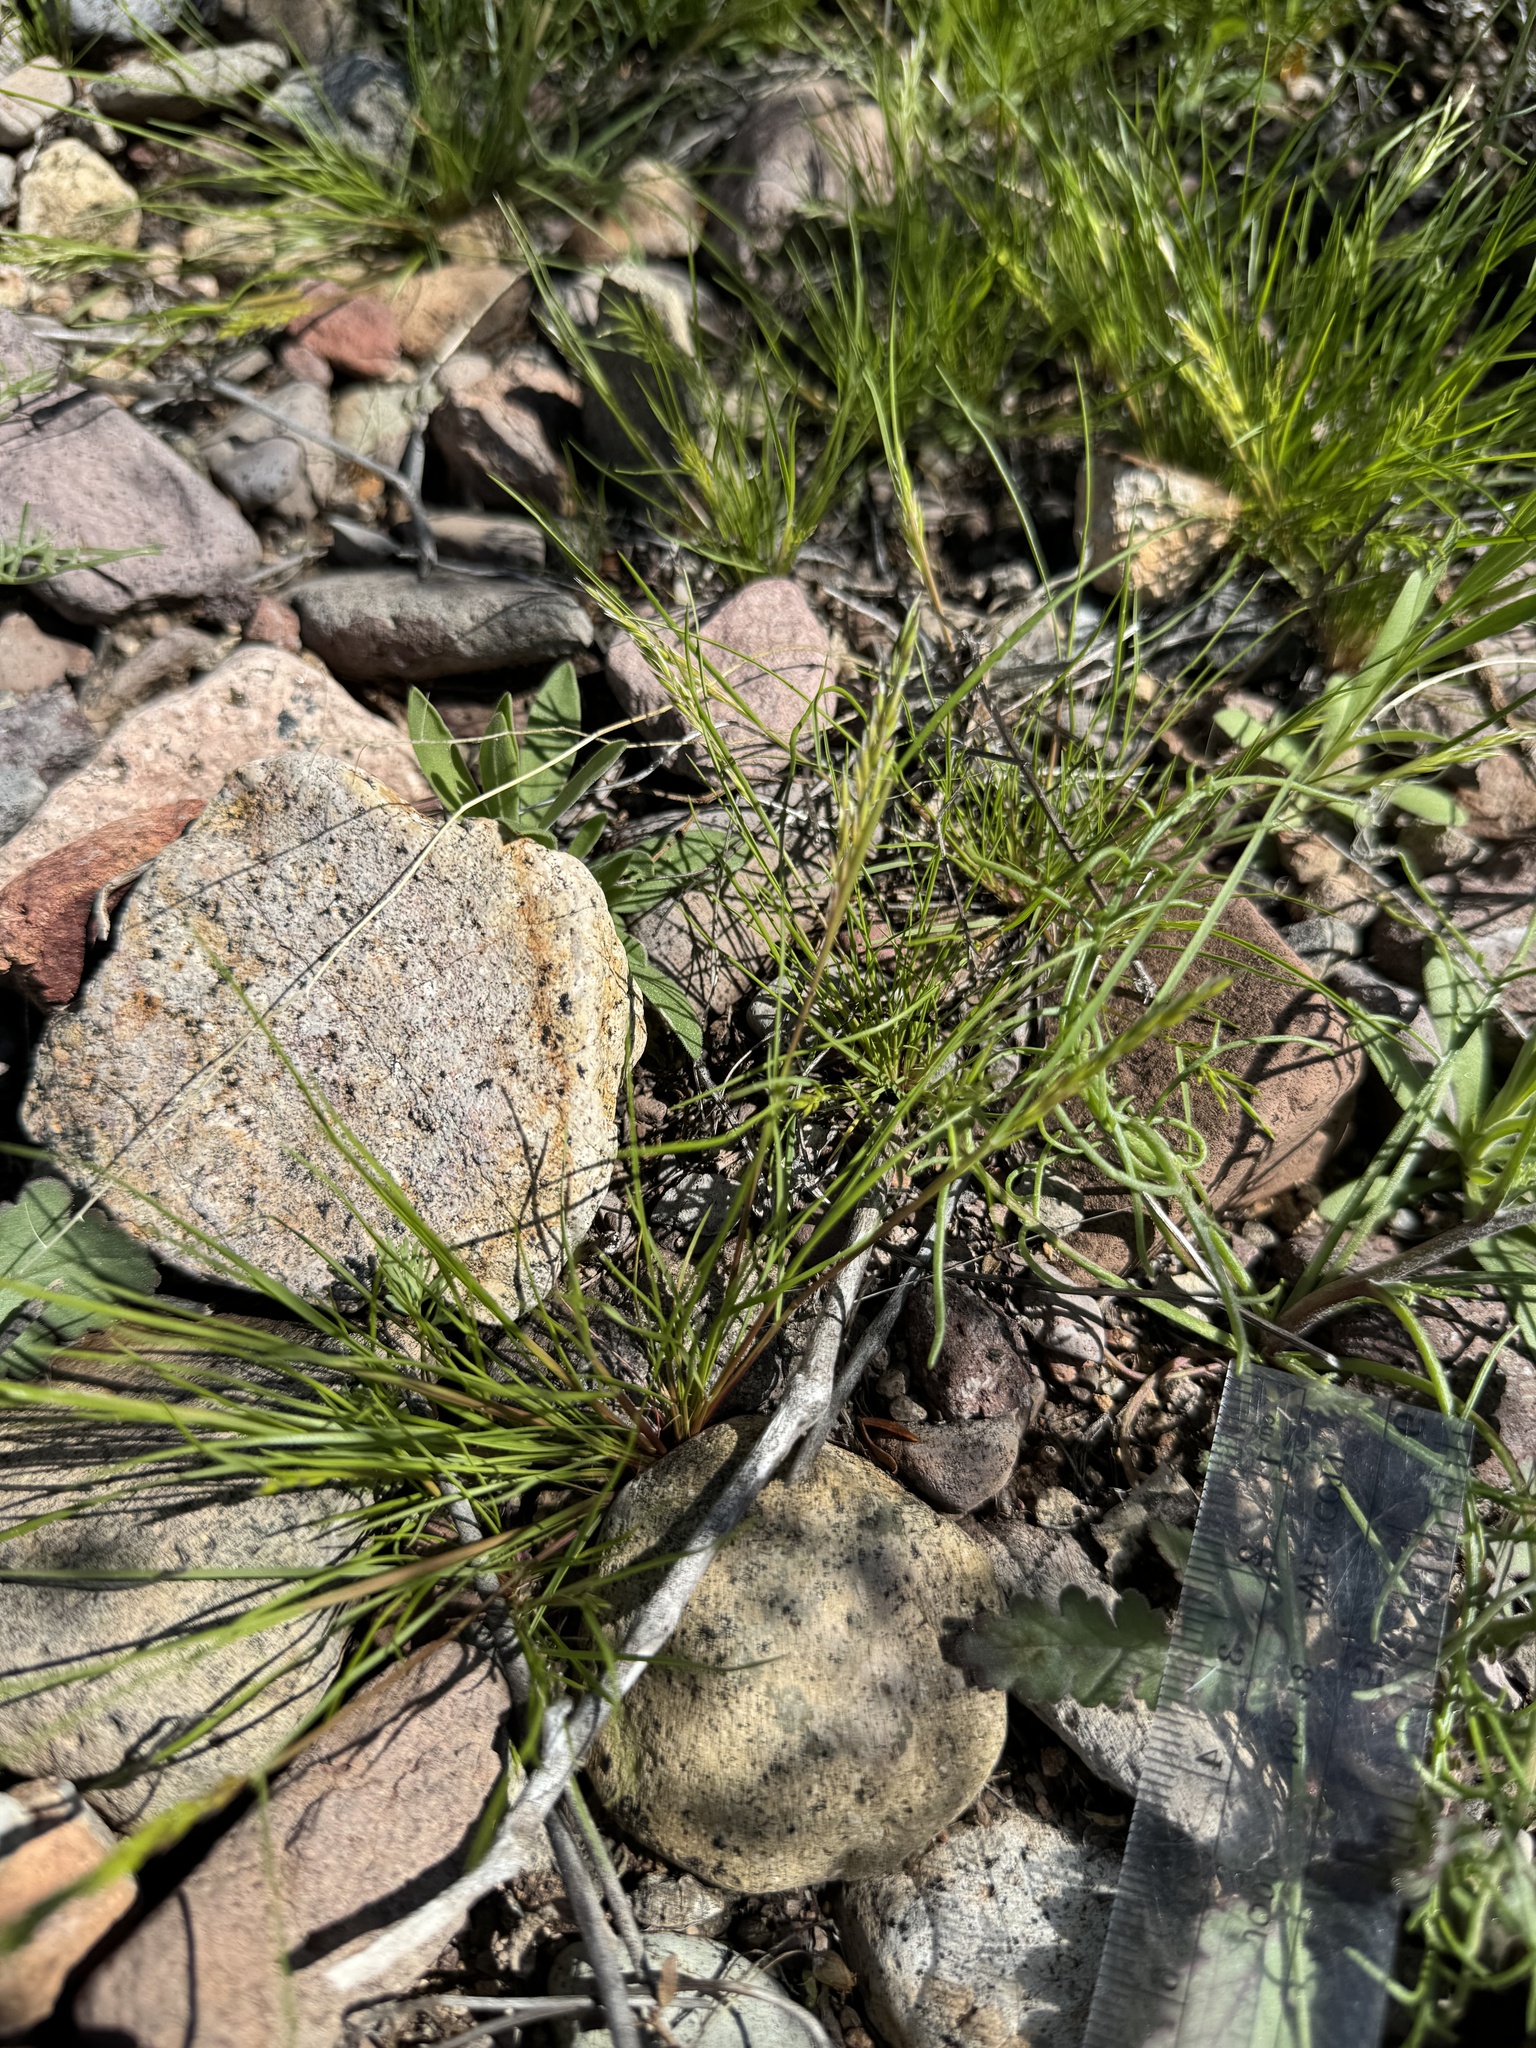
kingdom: Plantae
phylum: Tracheophyta
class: Liliopsida
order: Poales
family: Poaceae
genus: Schismus
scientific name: Schismus barbatus
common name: Kelch-grass
